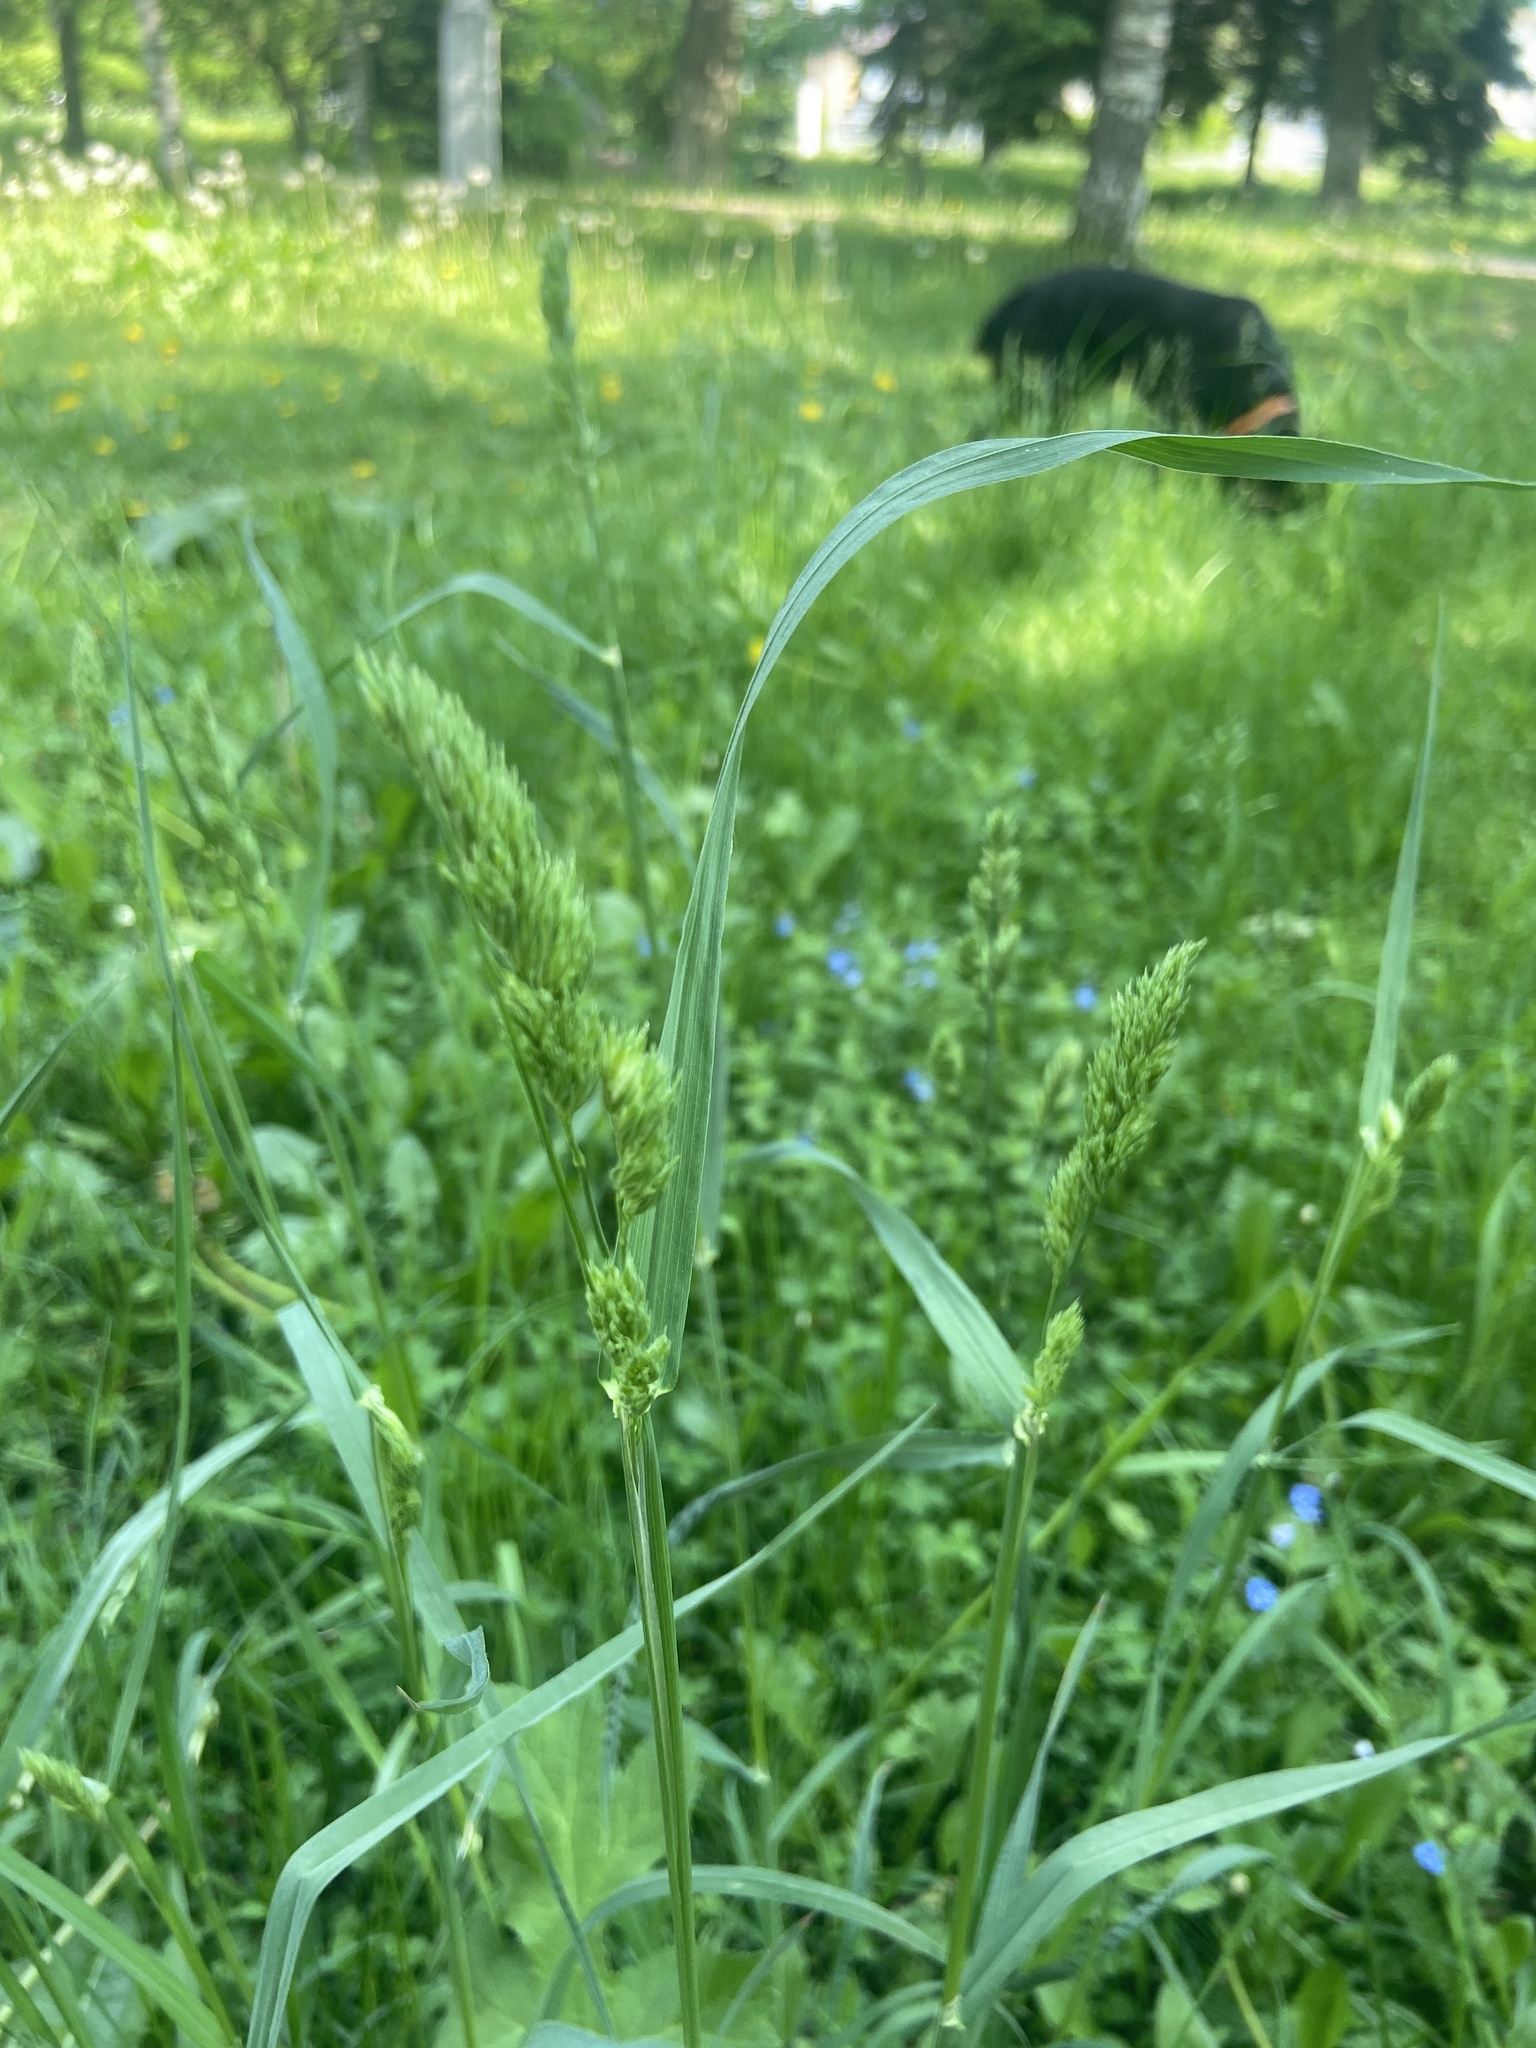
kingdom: Plantae
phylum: Tracheophyta
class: Liliopsida
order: Poales
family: Poaceae
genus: Dactylis
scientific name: Dactylis glomerata
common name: Orchardgrass
